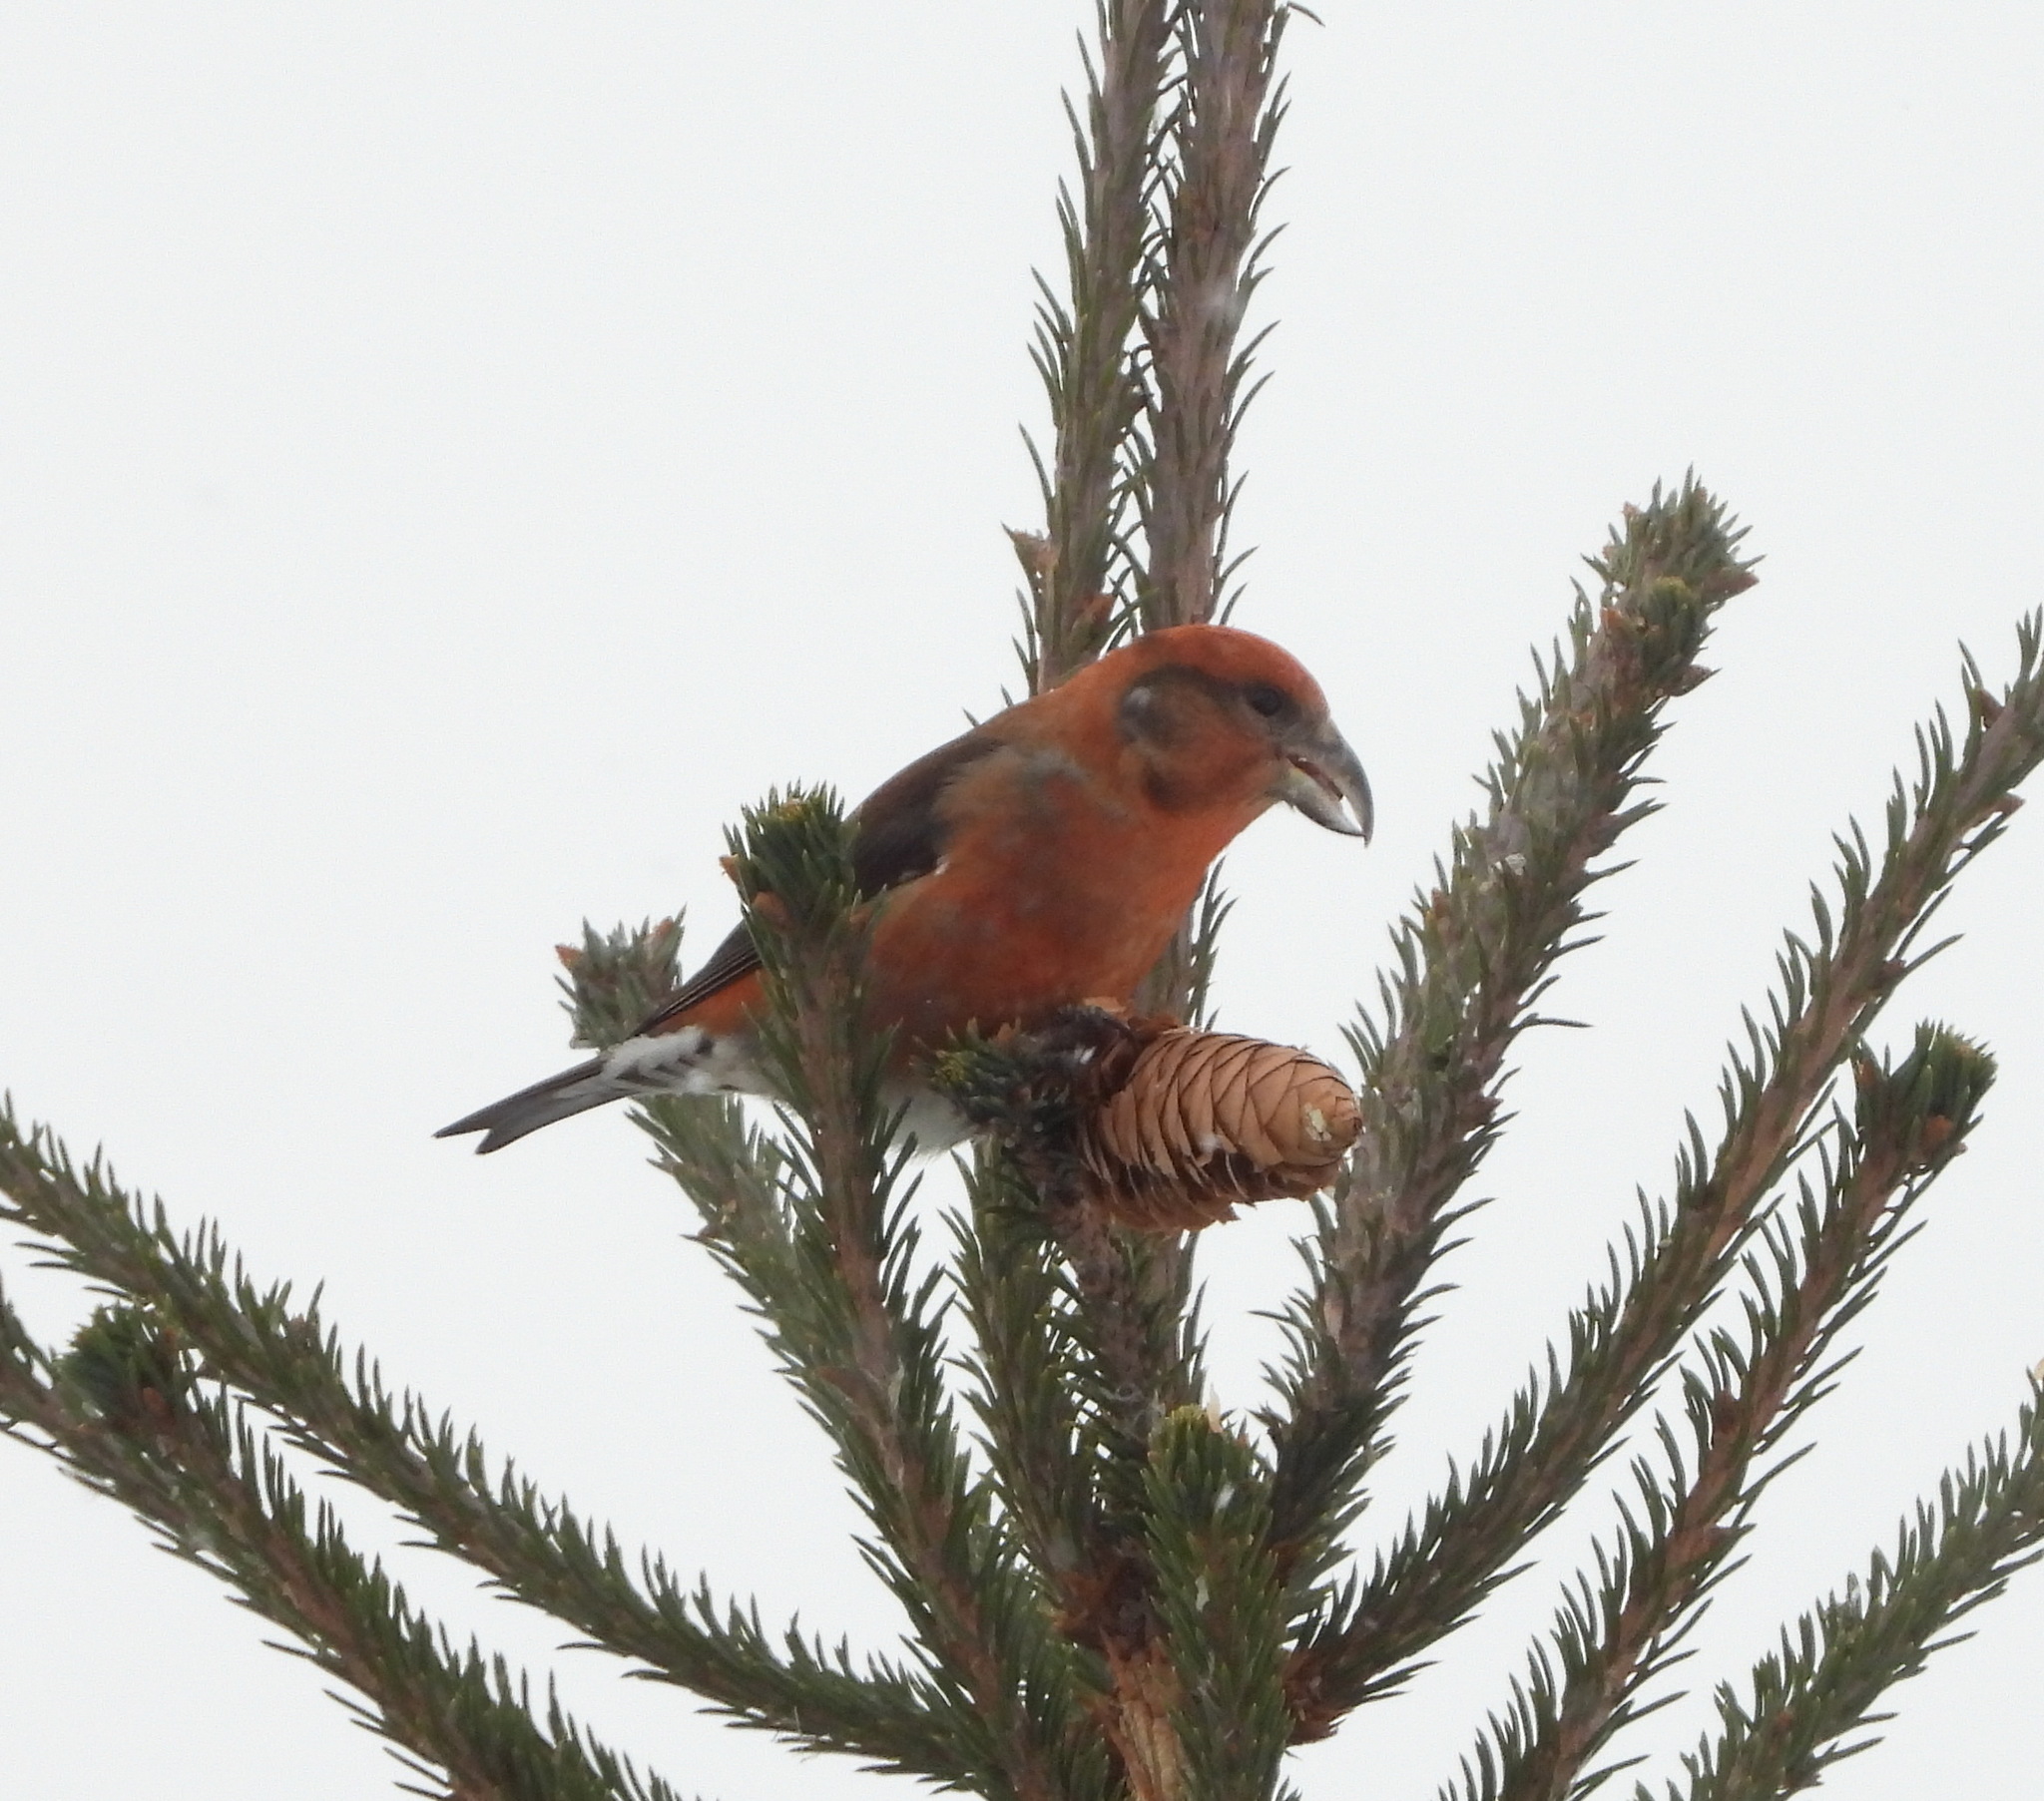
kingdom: Animalia
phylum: Chordata
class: Aves
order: Passeriformes
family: Fringillidae
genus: Loxia
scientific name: Loxia curvirostra
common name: Red crossbill
